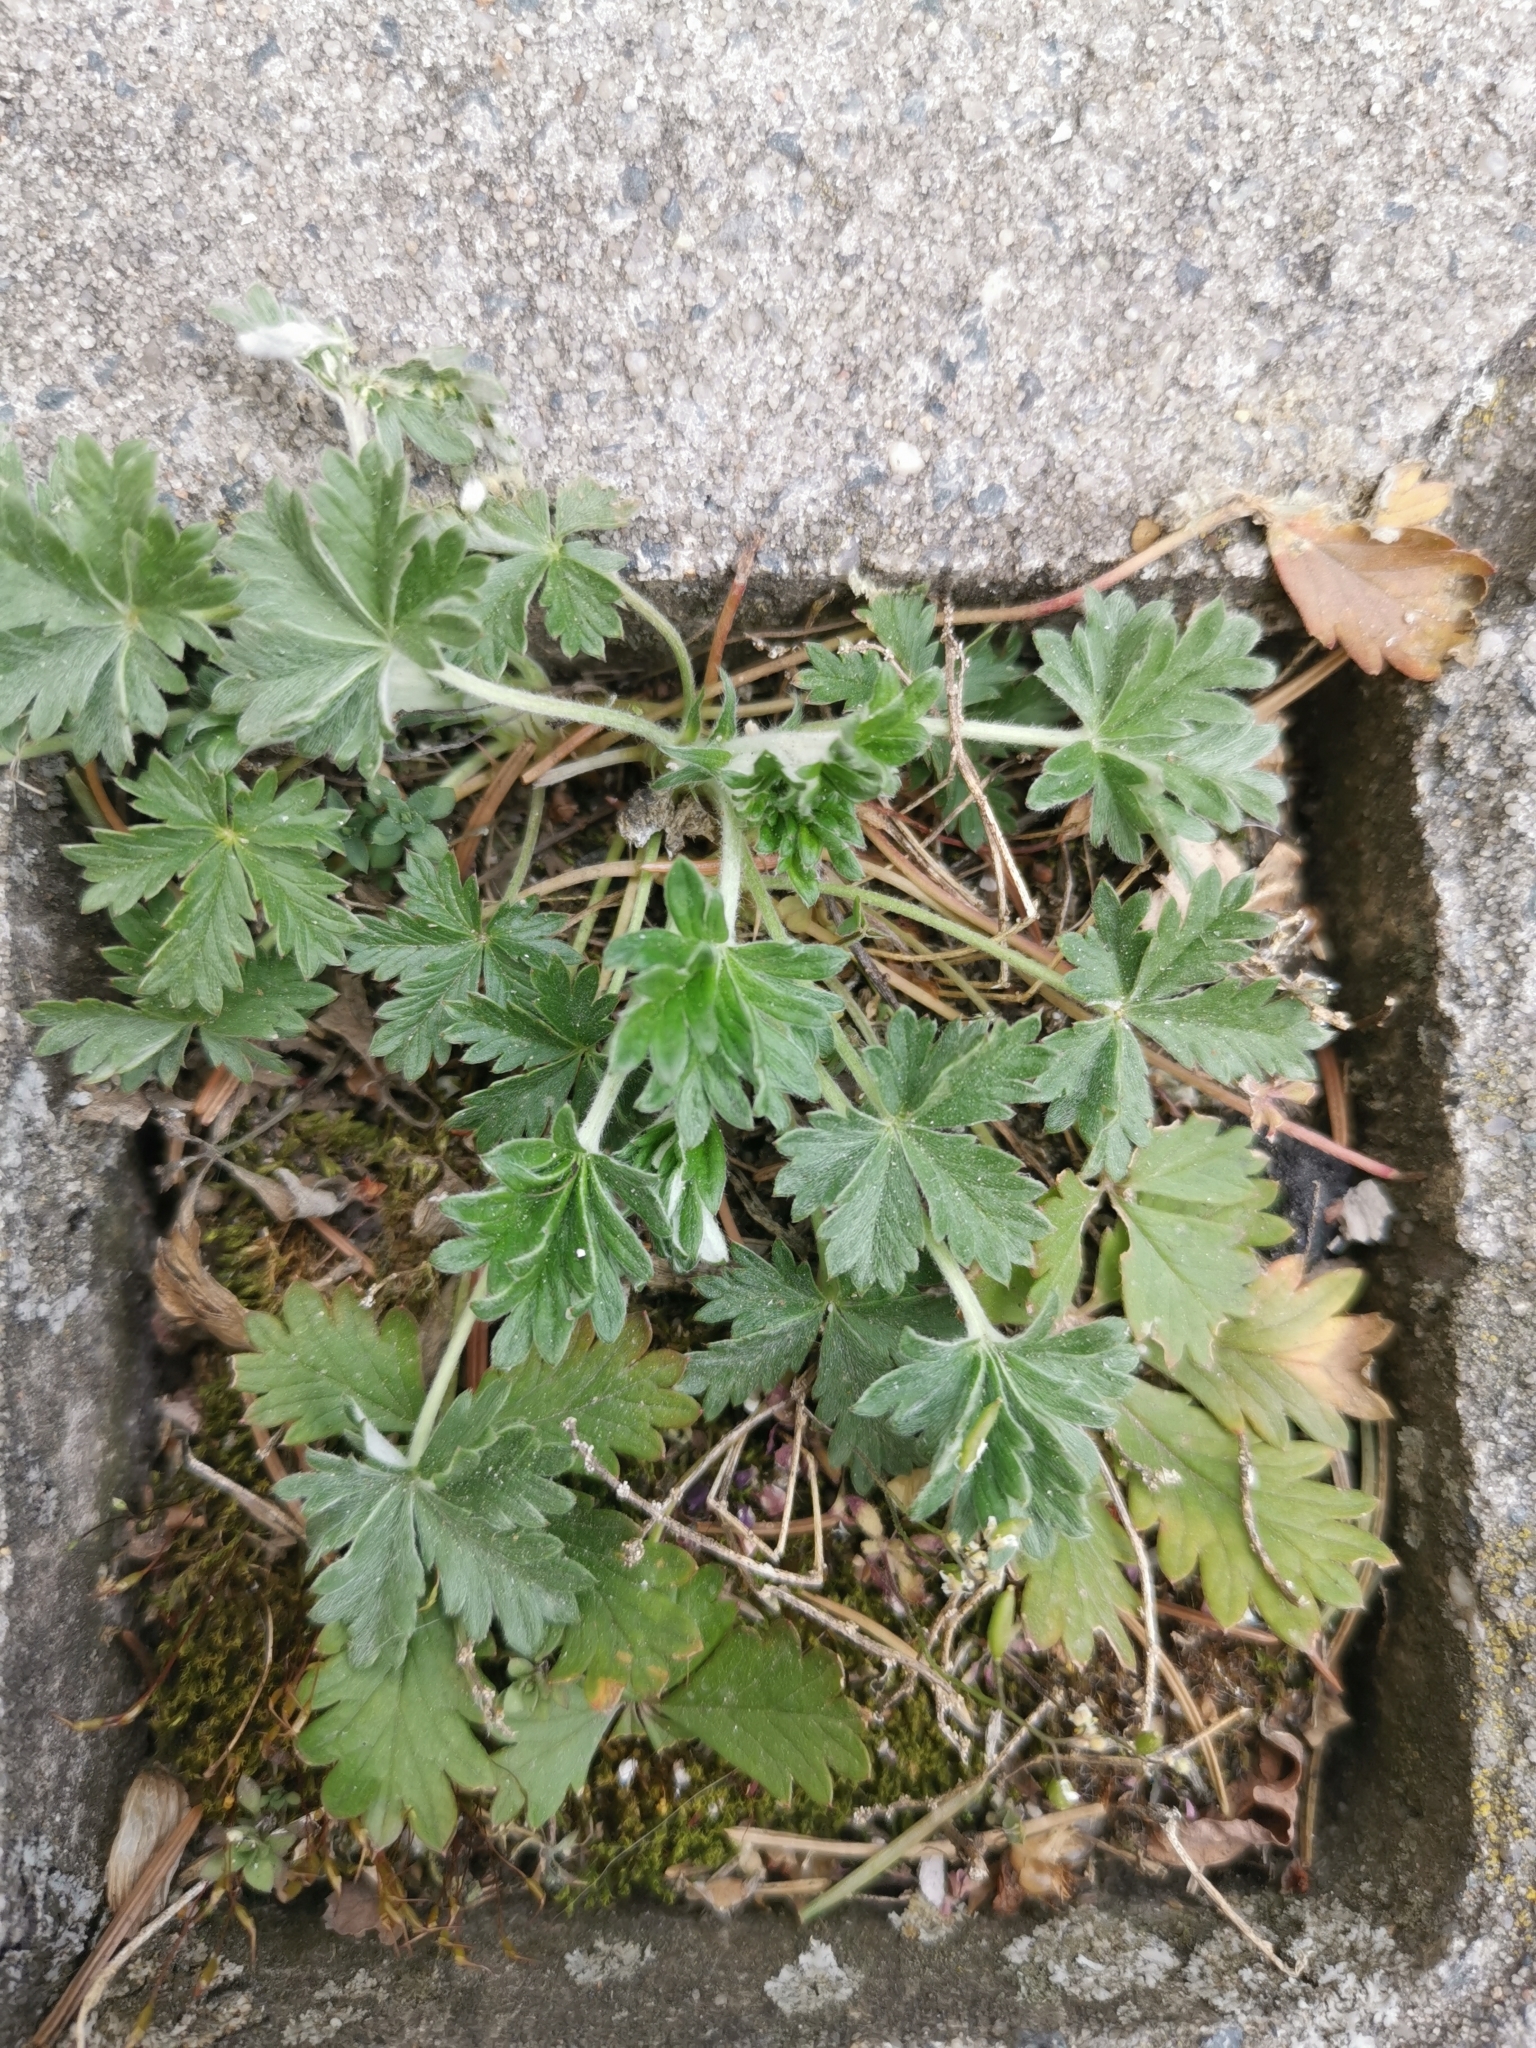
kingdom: Plantae
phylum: Tracheophyta
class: Magnoliopsida
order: Rosales
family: Rosaceae
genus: Potentilla
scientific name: Potentilla argentea
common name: Hoary cinquefoil
